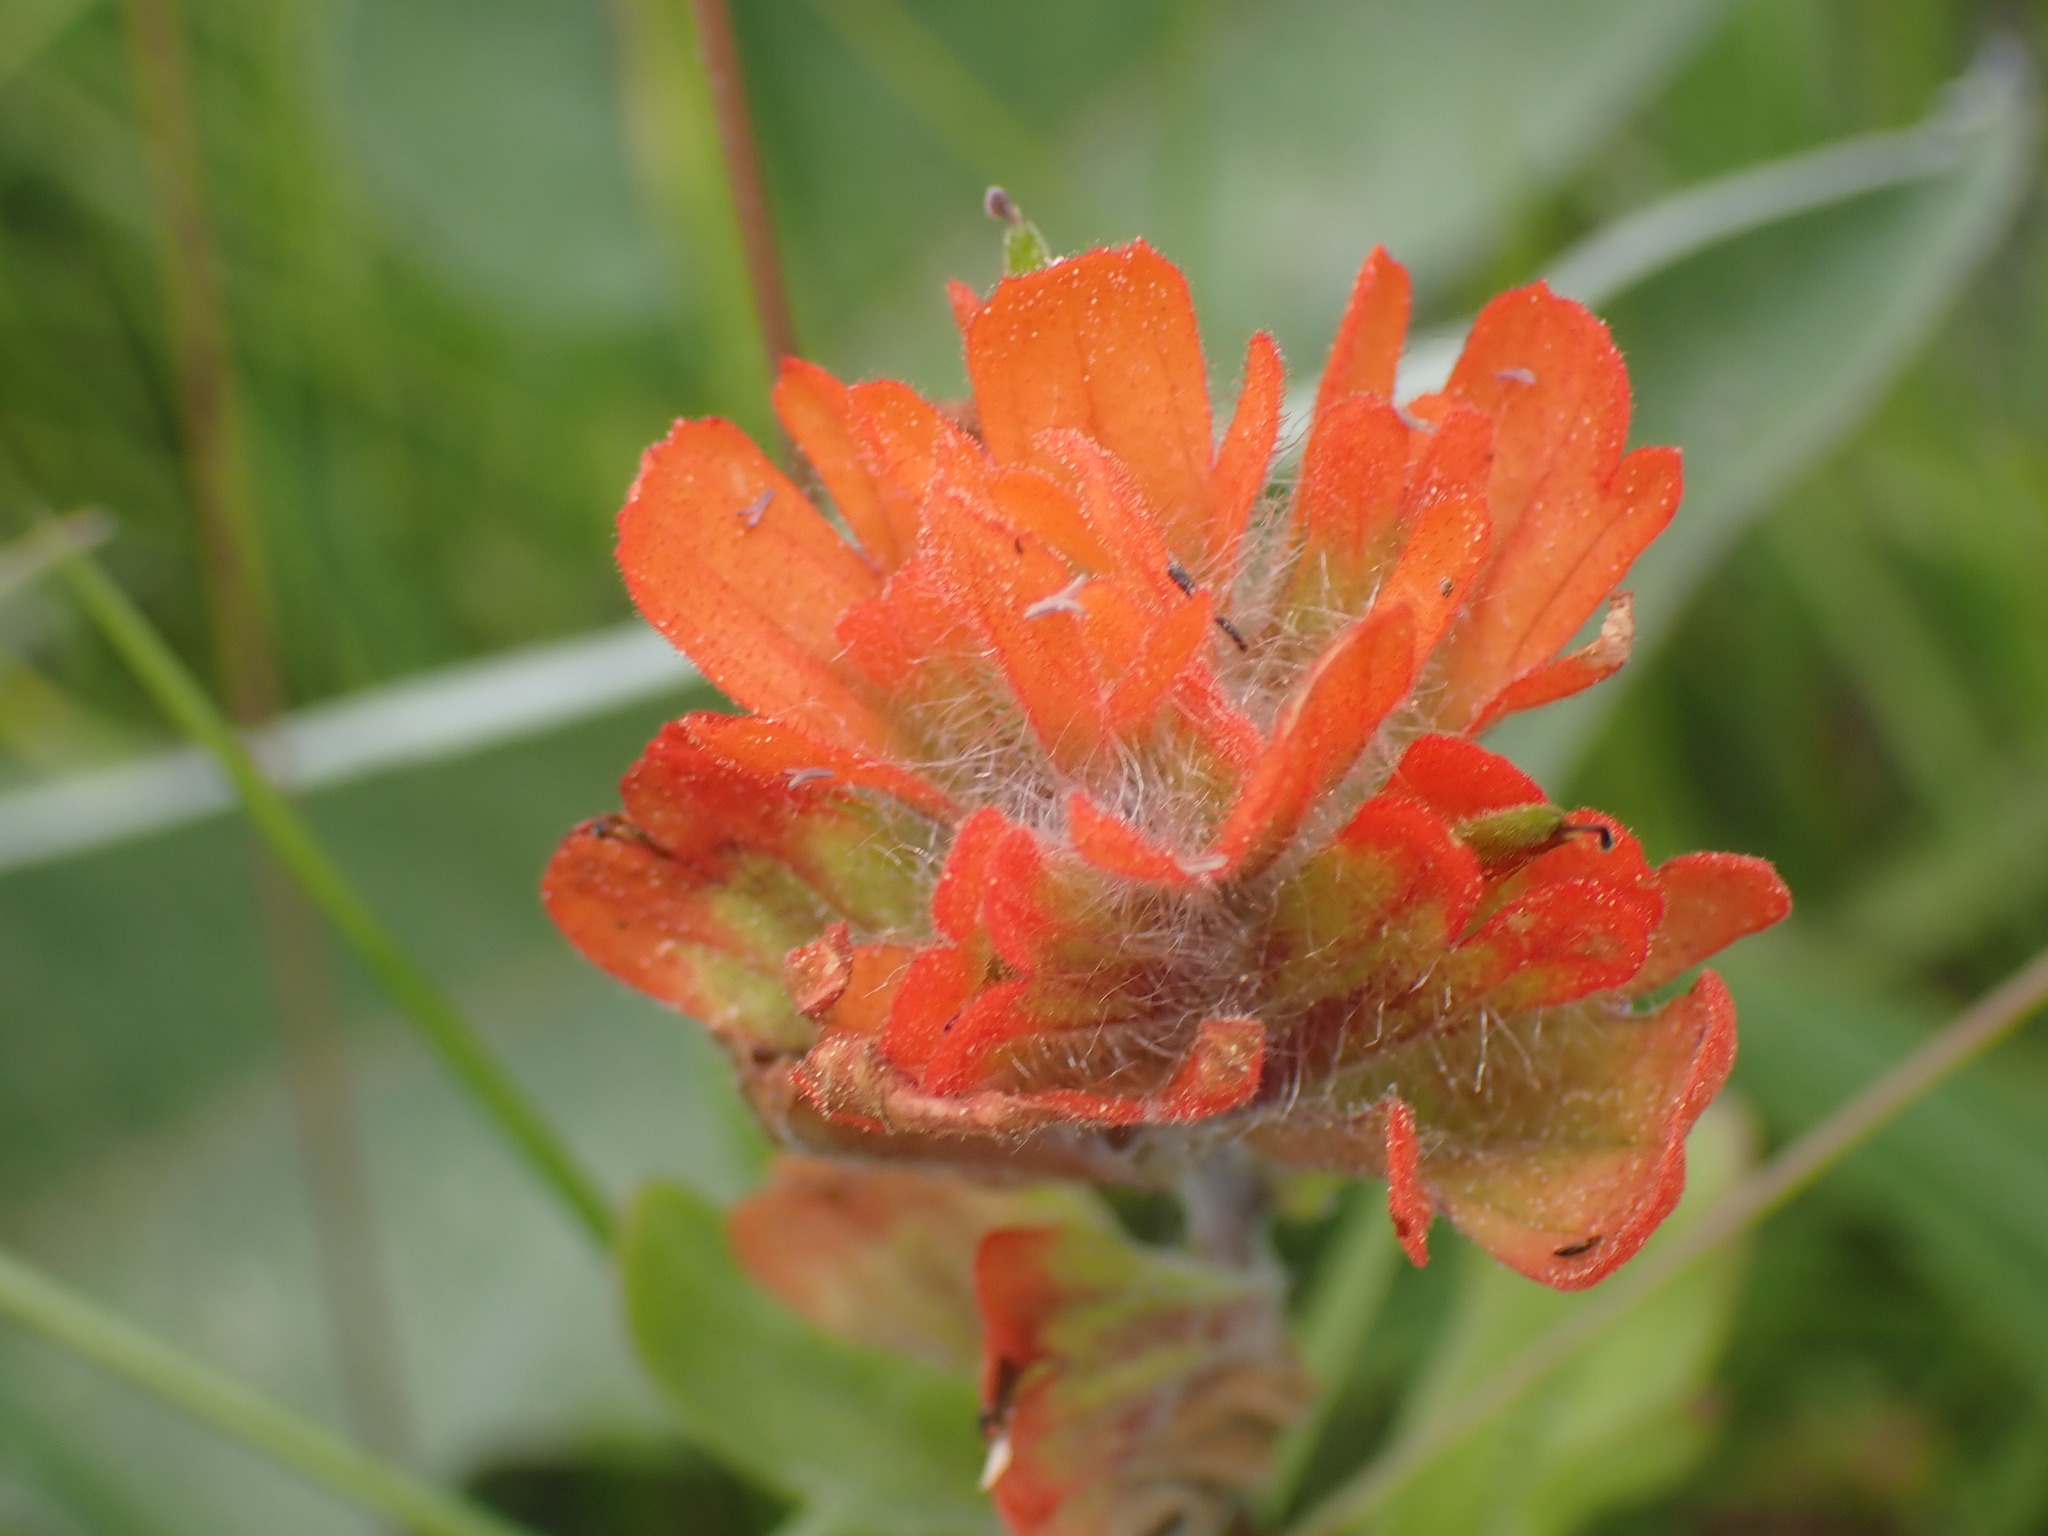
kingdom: Plantae
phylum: Tracheophyta
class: Magnoliopsida
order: Lamiales
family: Orobanchaceae
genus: Castilleja
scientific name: Castilleja hispida
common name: Bristly paintbrush
